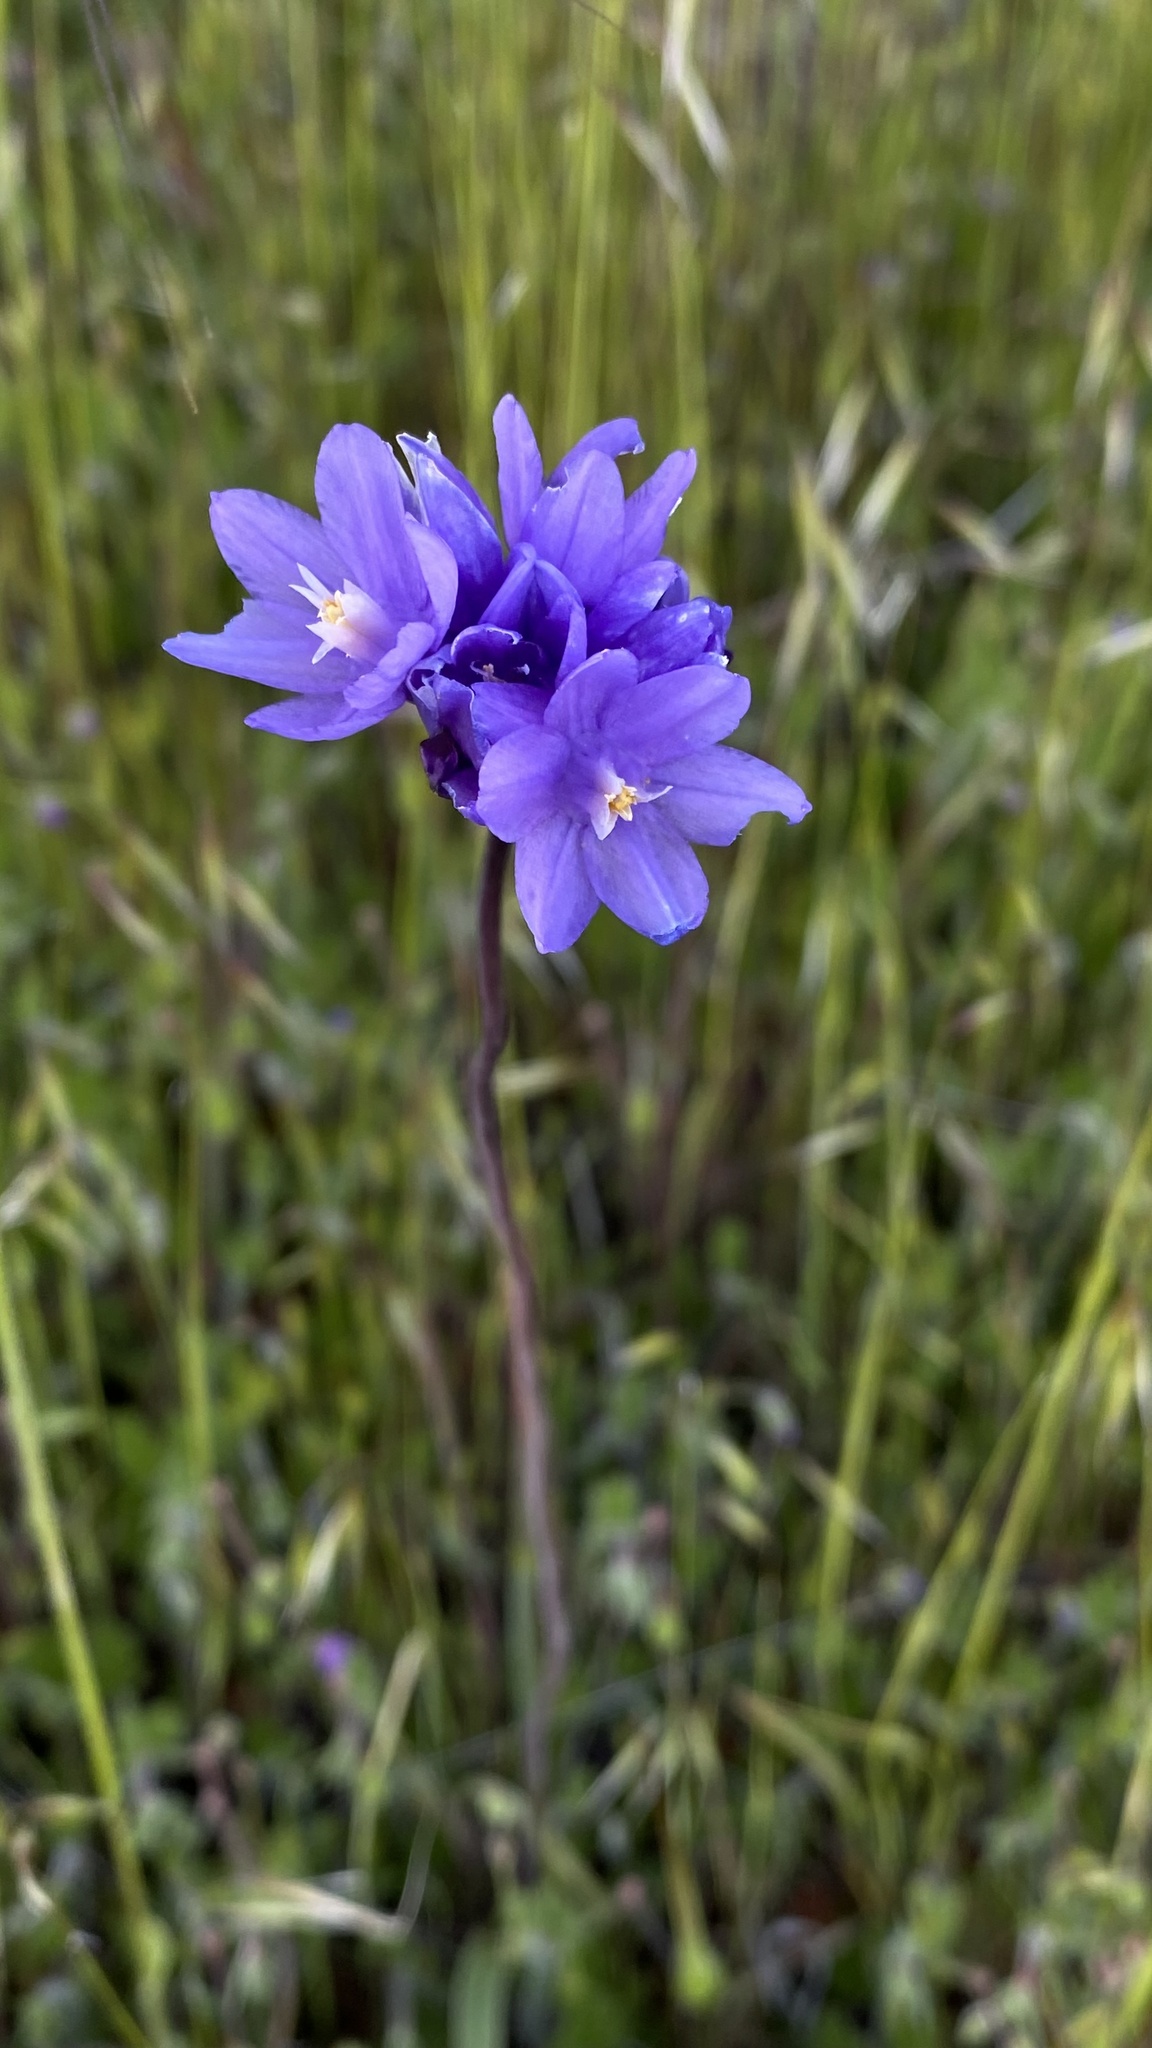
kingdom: Plantae
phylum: Tracheophyta
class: Liliopsida
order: Asparagales
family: Asparagaceae
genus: Dipterostemon
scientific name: Dipterostemon capitatus
